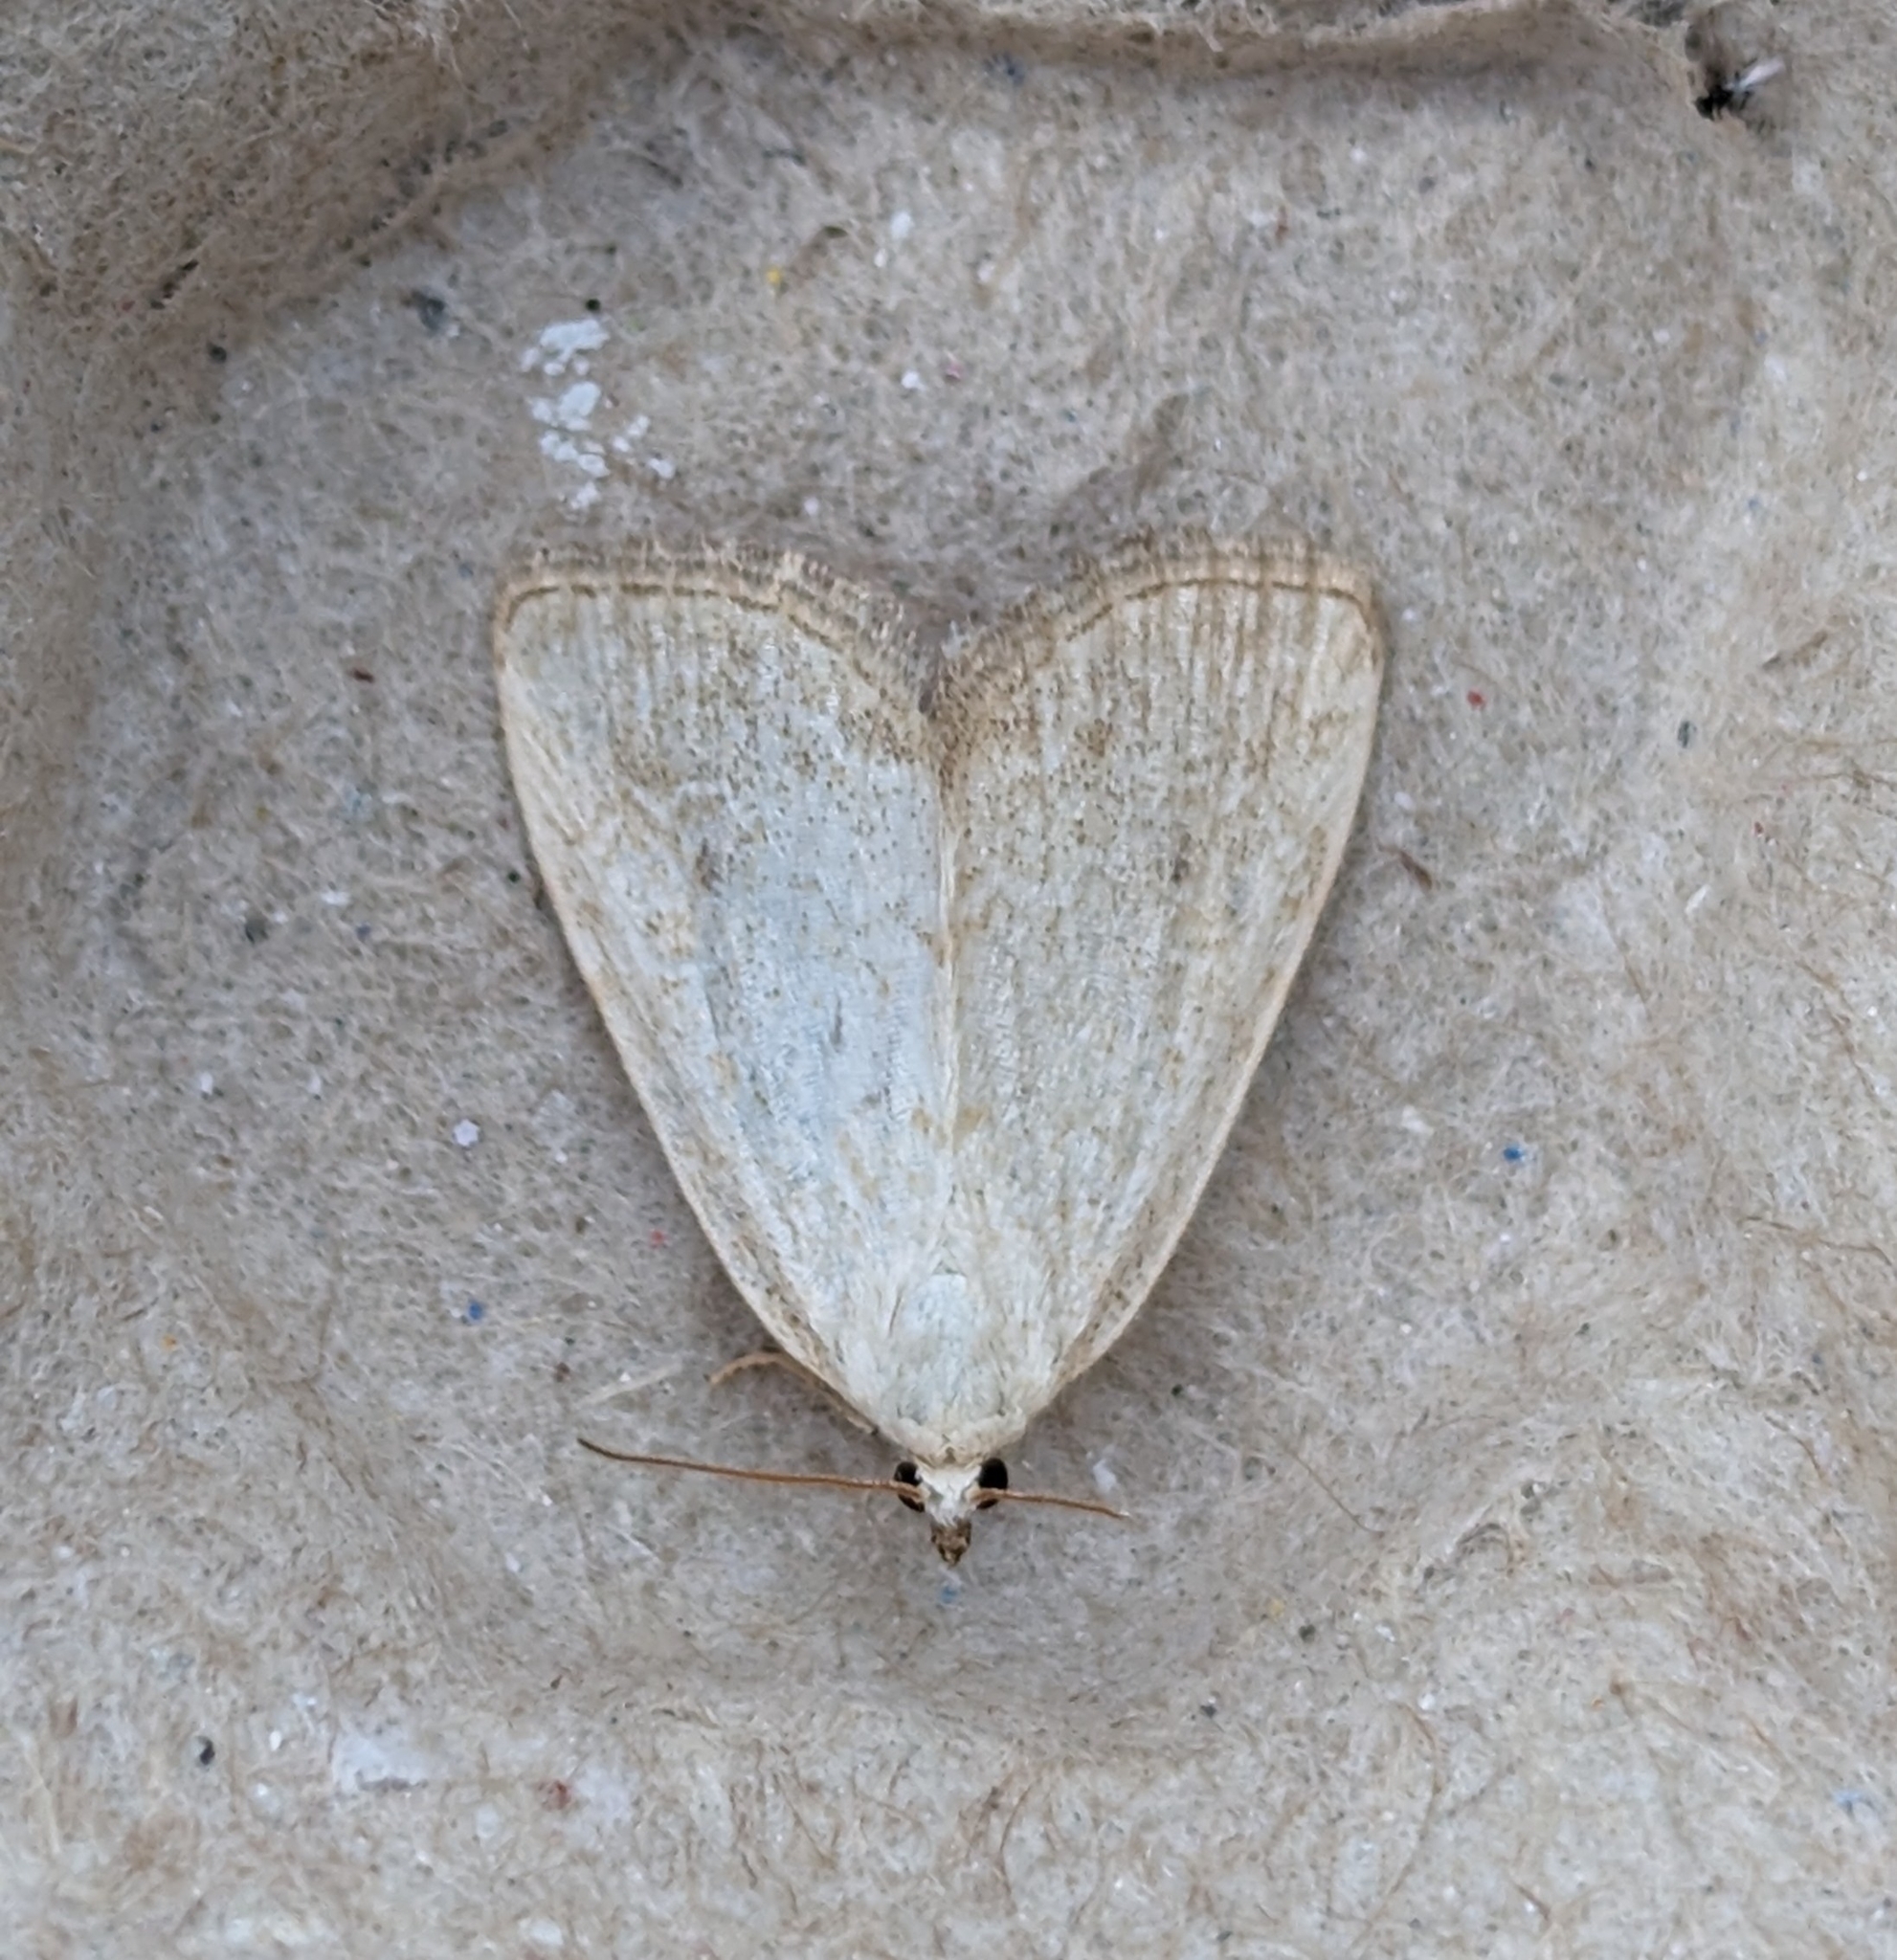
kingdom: Animalia
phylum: Arthropoda
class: Insecta
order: Lepidoptera
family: Noctuidae
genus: Protodeltote
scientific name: Protodeltote albidula
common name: Pale glyph
